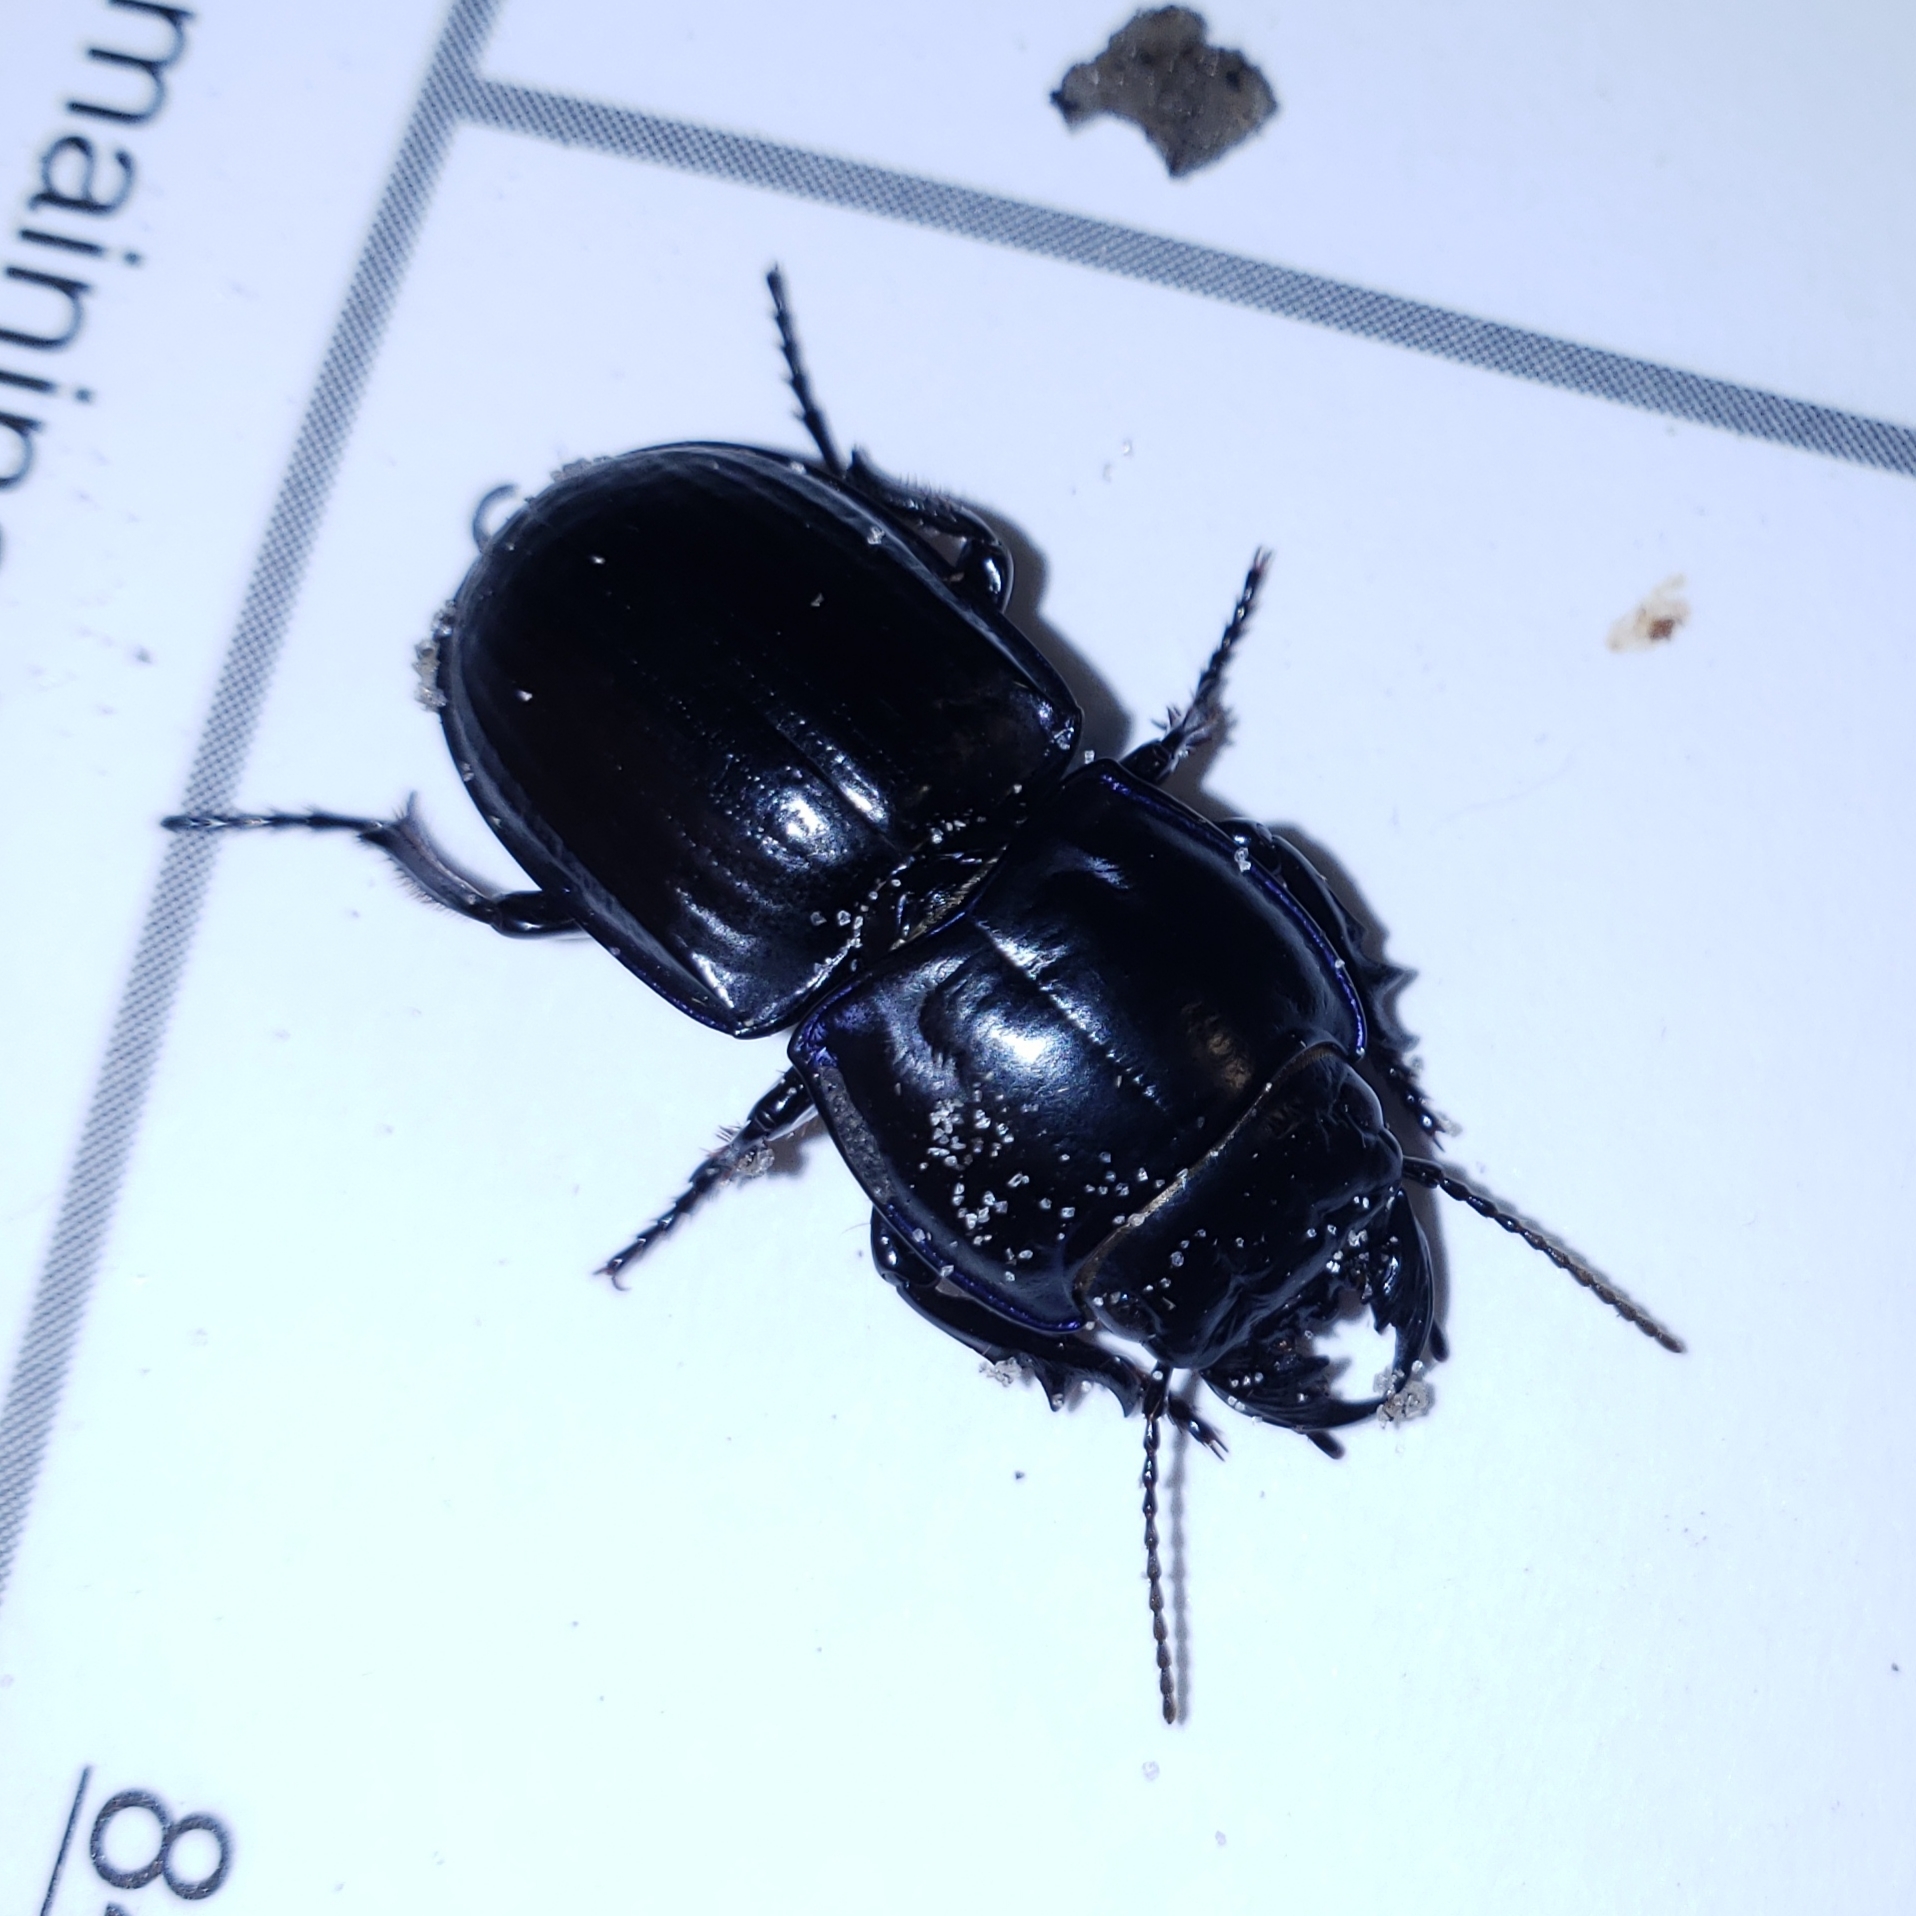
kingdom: Animalia
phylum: Arthropoda
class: Insecta
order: Coleoptera
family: Carabidae
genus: Pasimachus
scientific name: Pasimachus sublaevis
